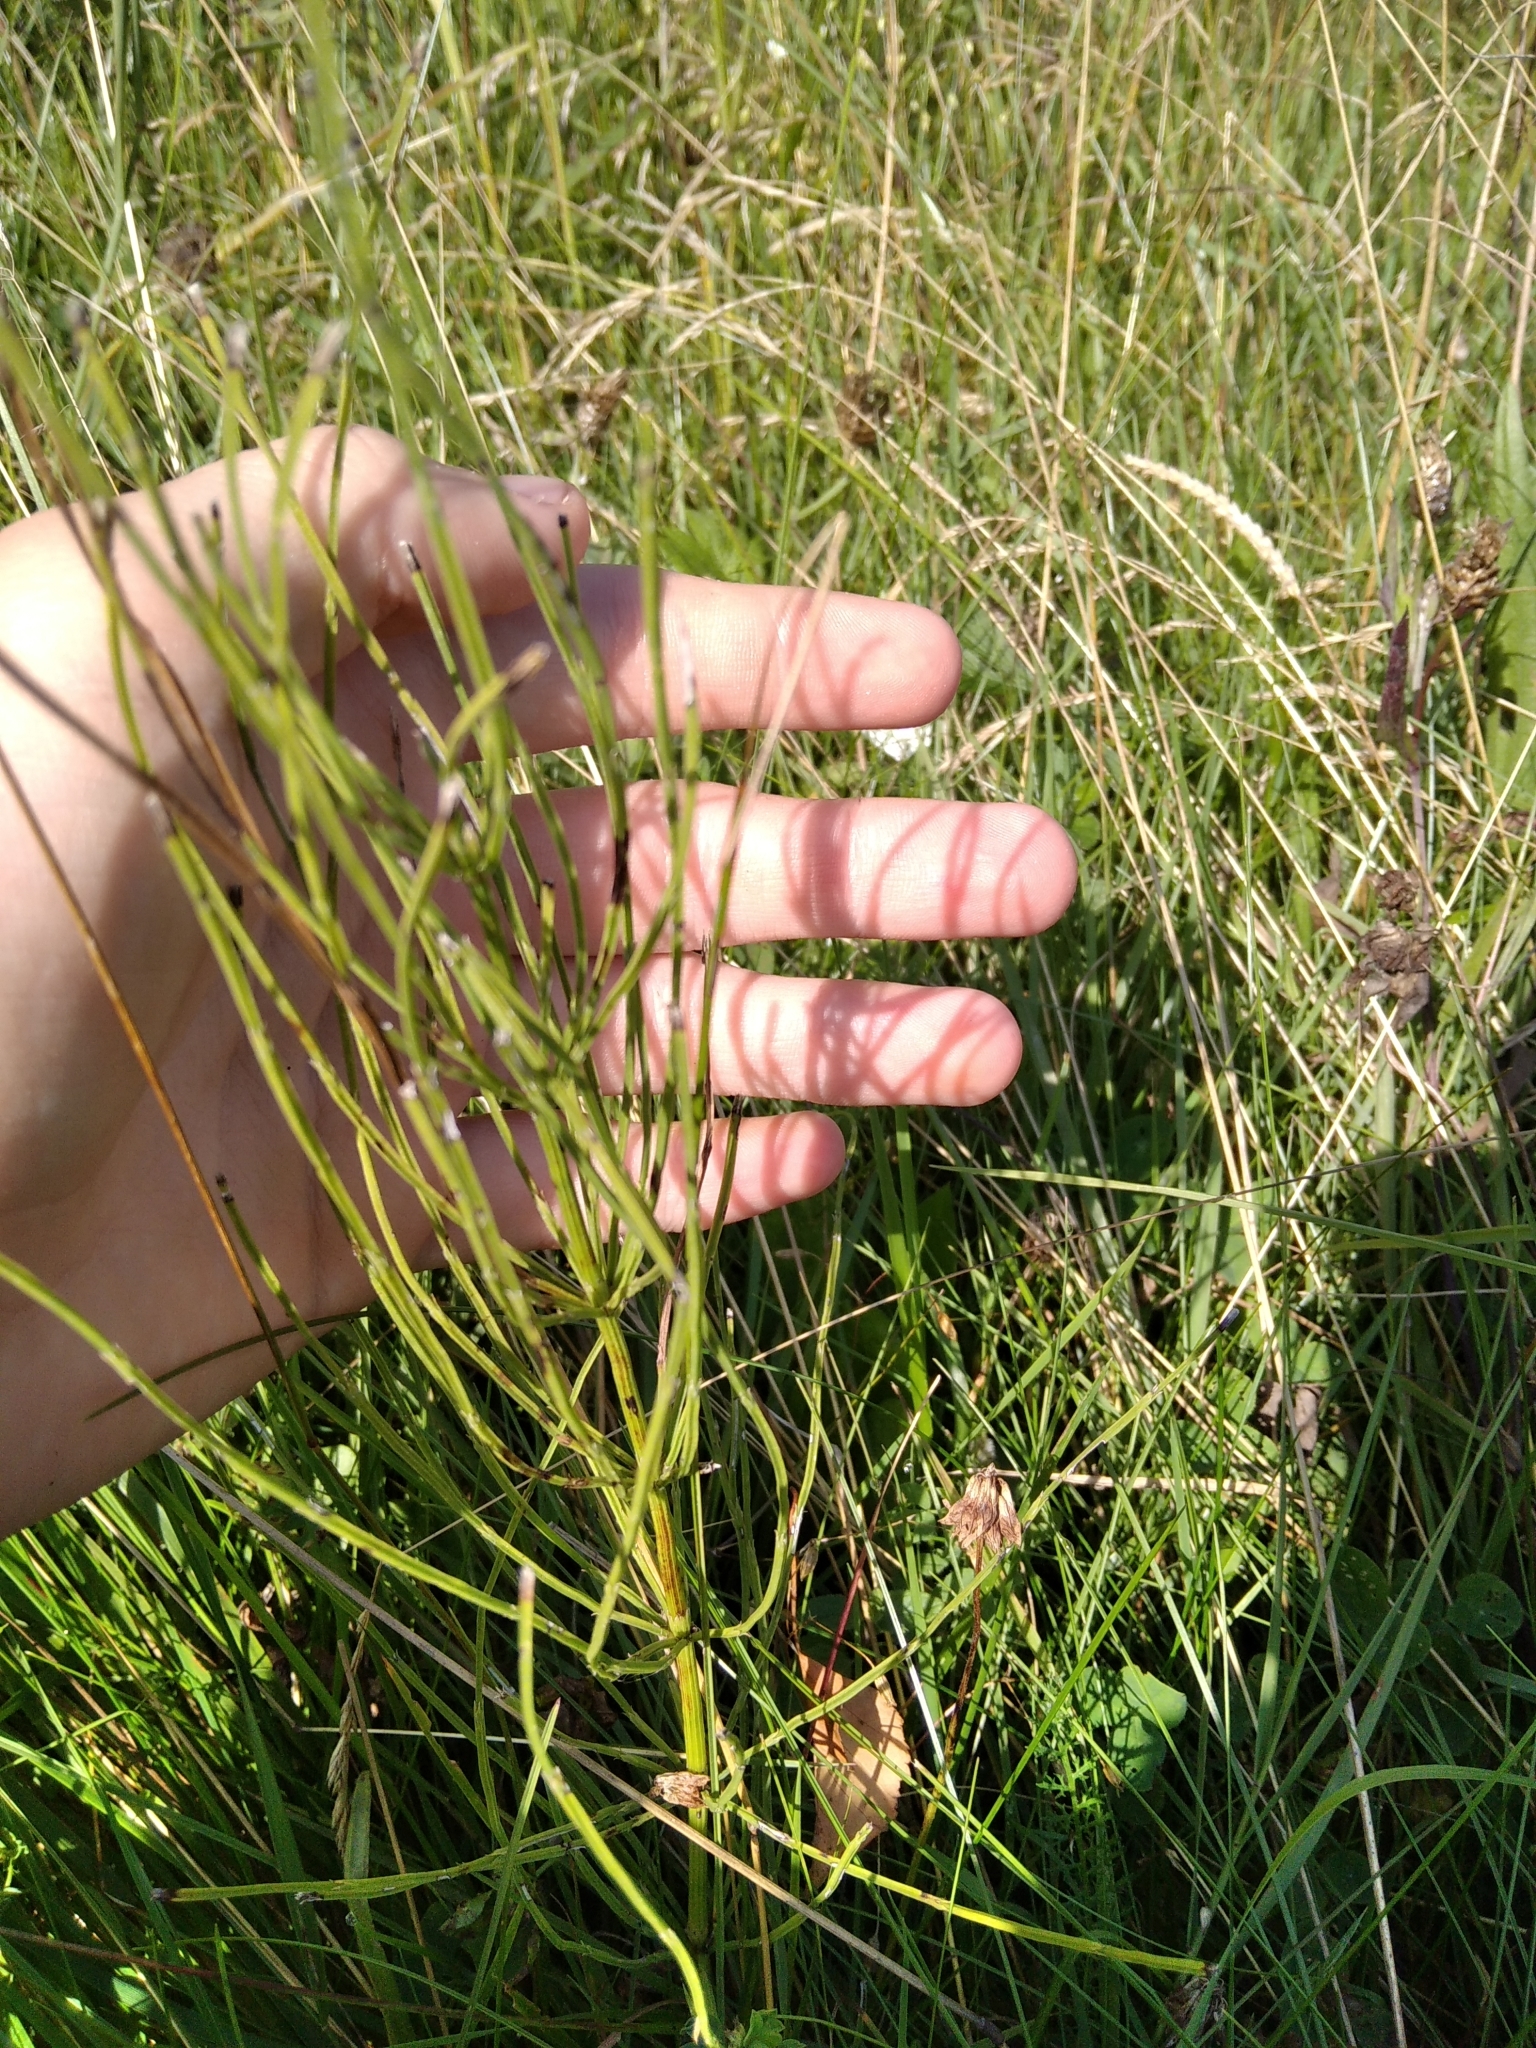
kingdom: Plantae
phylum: Tracheophyta
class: Polypodiopsida
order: Equisetales
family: Equisetaceae
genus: Equisetum
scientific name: Equisetum arvense
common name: Field horsetail
